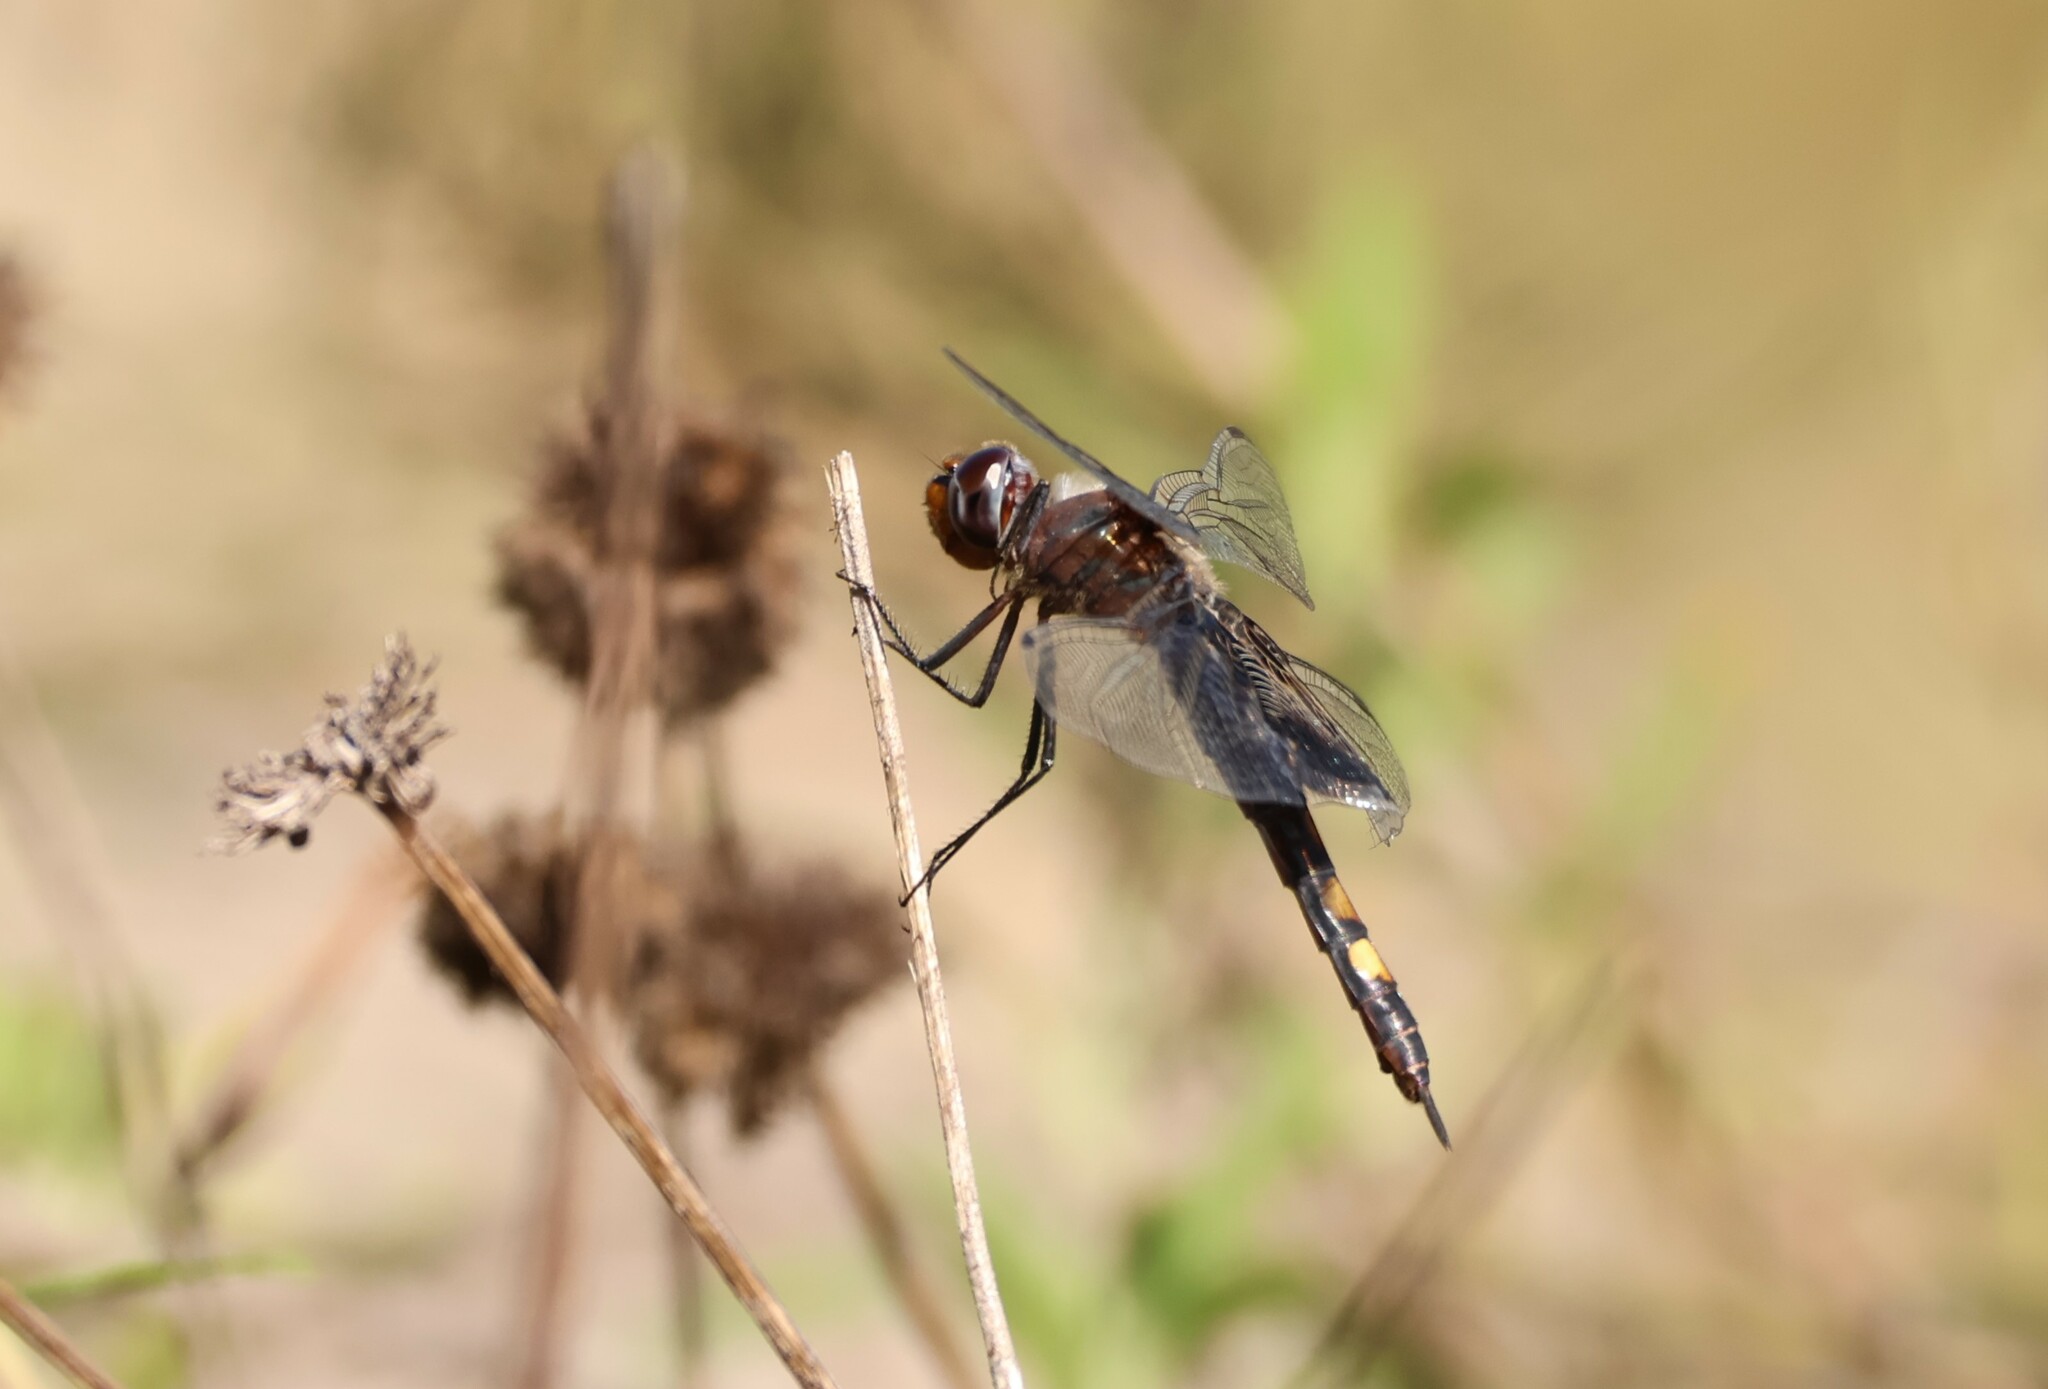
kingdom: Animalia
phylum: Arthropoda
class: Insecta
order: Odonata
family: Libellulidae
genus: Tramea
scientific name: Tramea lacerata
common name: Black saddlebags
